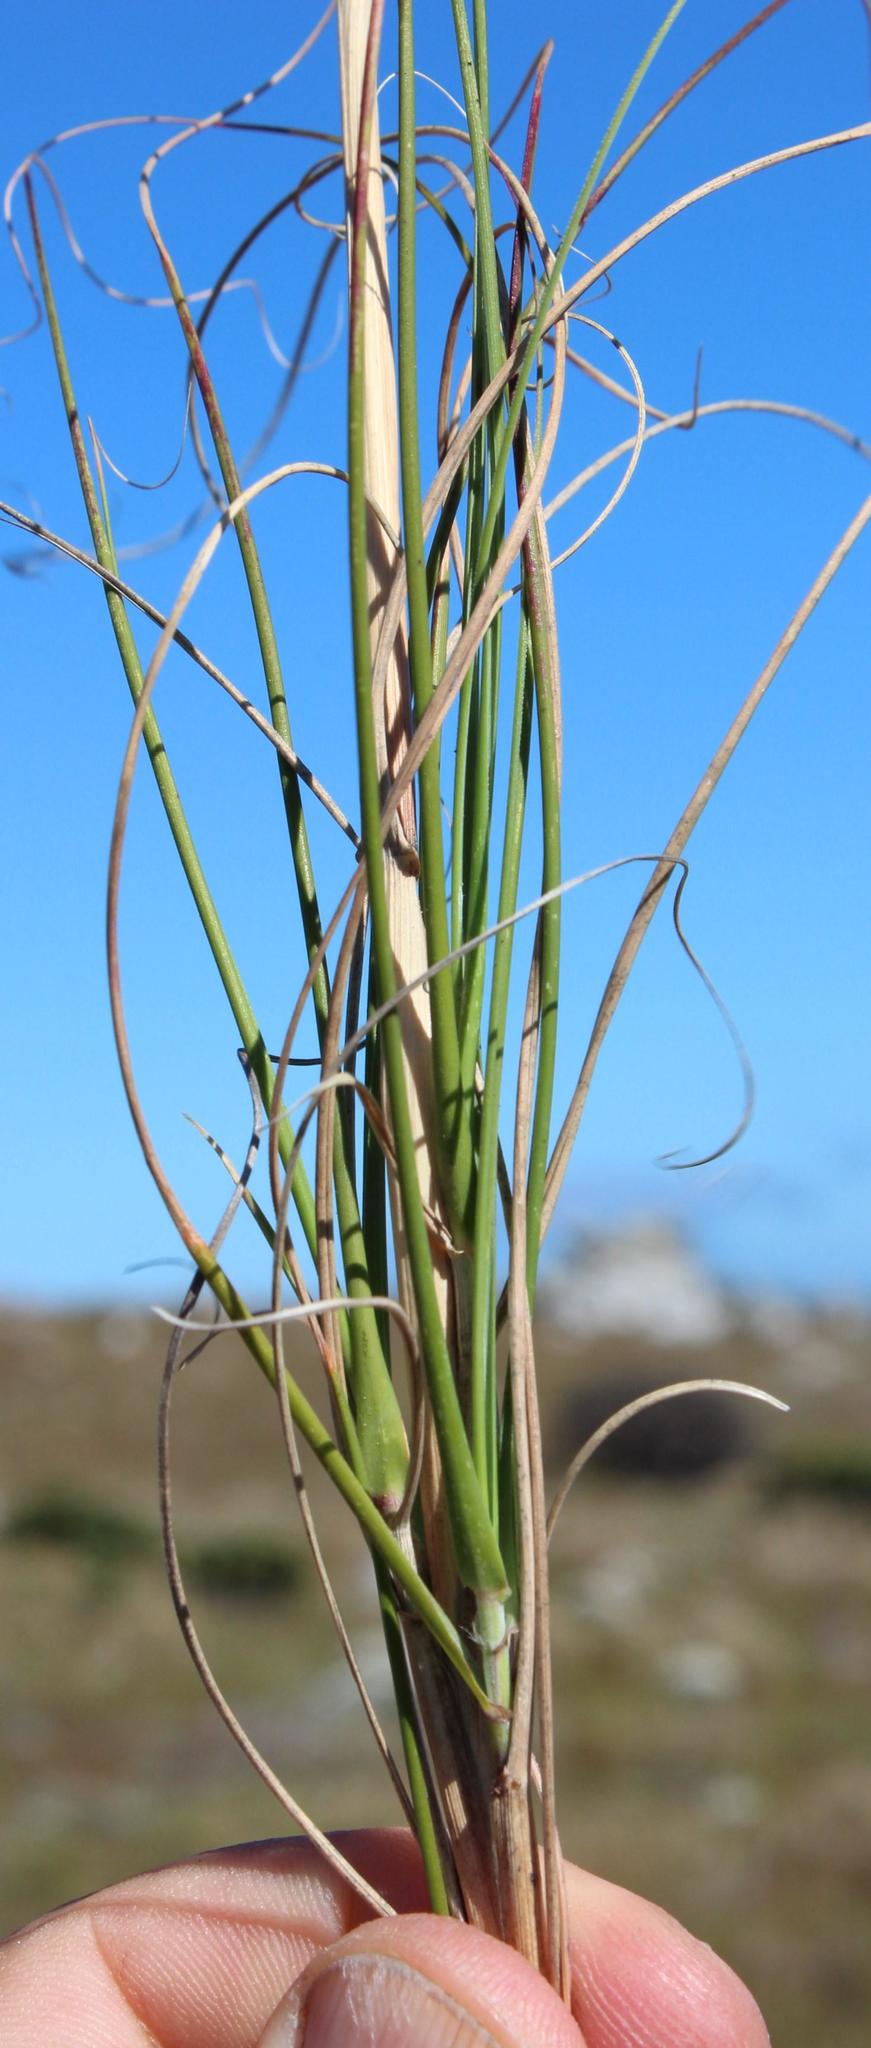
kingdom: Plantae
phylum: Tracheophyta
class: Liliopsida
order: Poales
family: Poaceae
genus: Pseudopentameris
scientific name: Pseudopentameris macrantha
